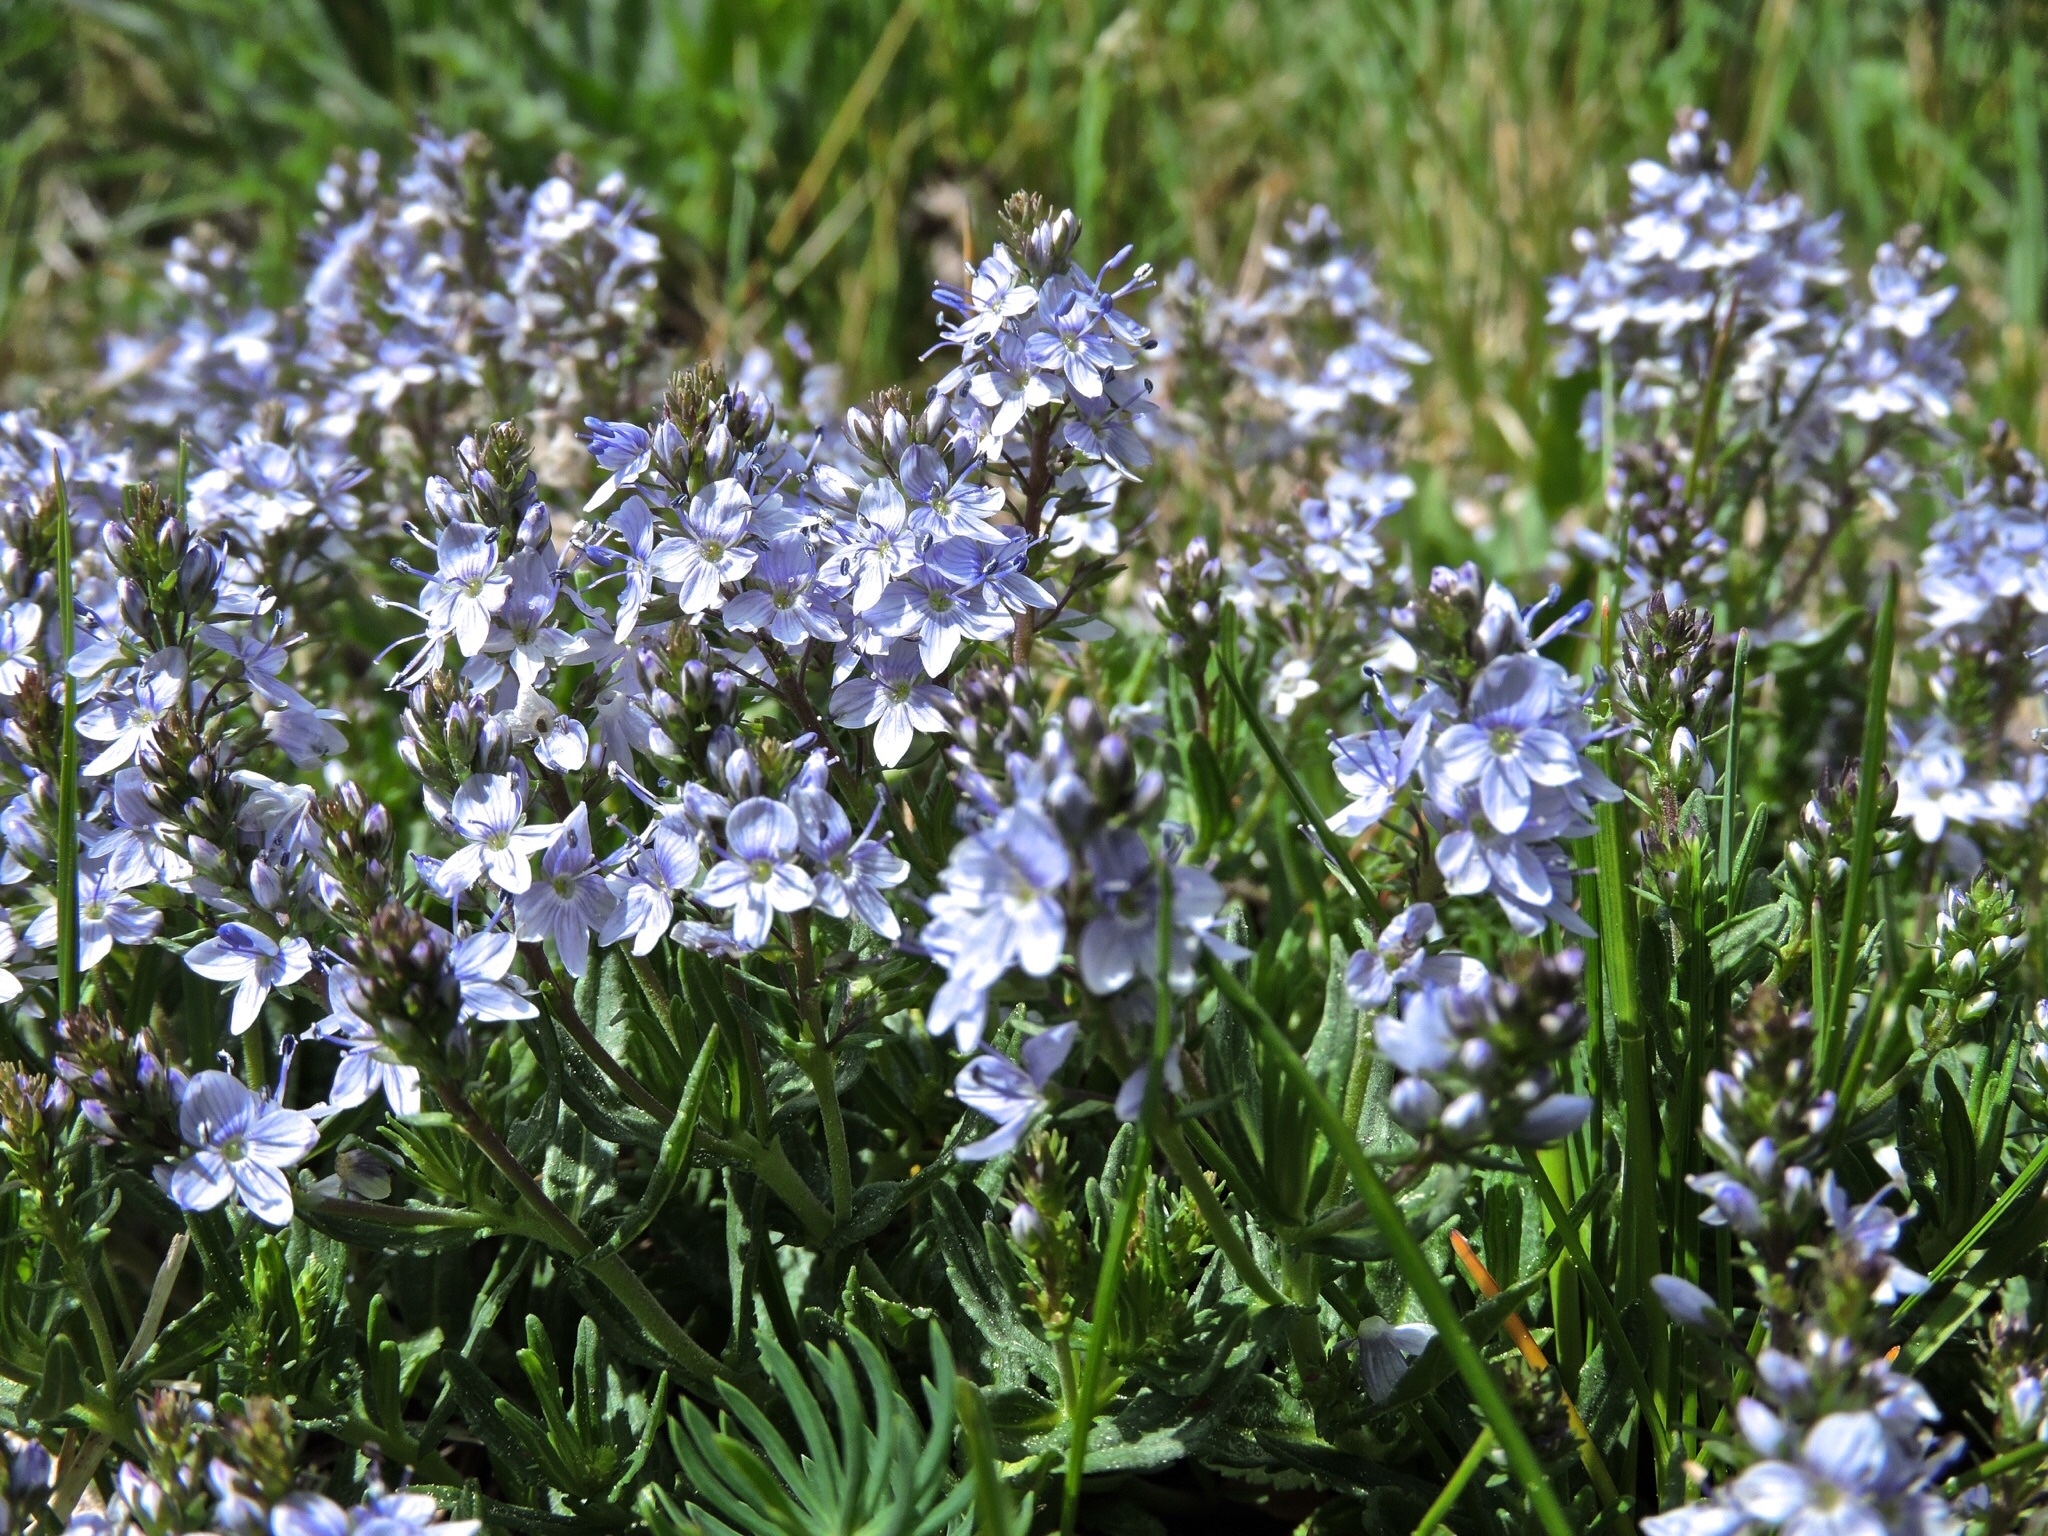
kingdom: Plantae
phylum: Tracheophyta
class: Magnoliopsida
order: Lamiales
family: Plantaginaceae
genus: Veronica
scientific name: Veronica prostrata
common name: Prostrate speedwell
